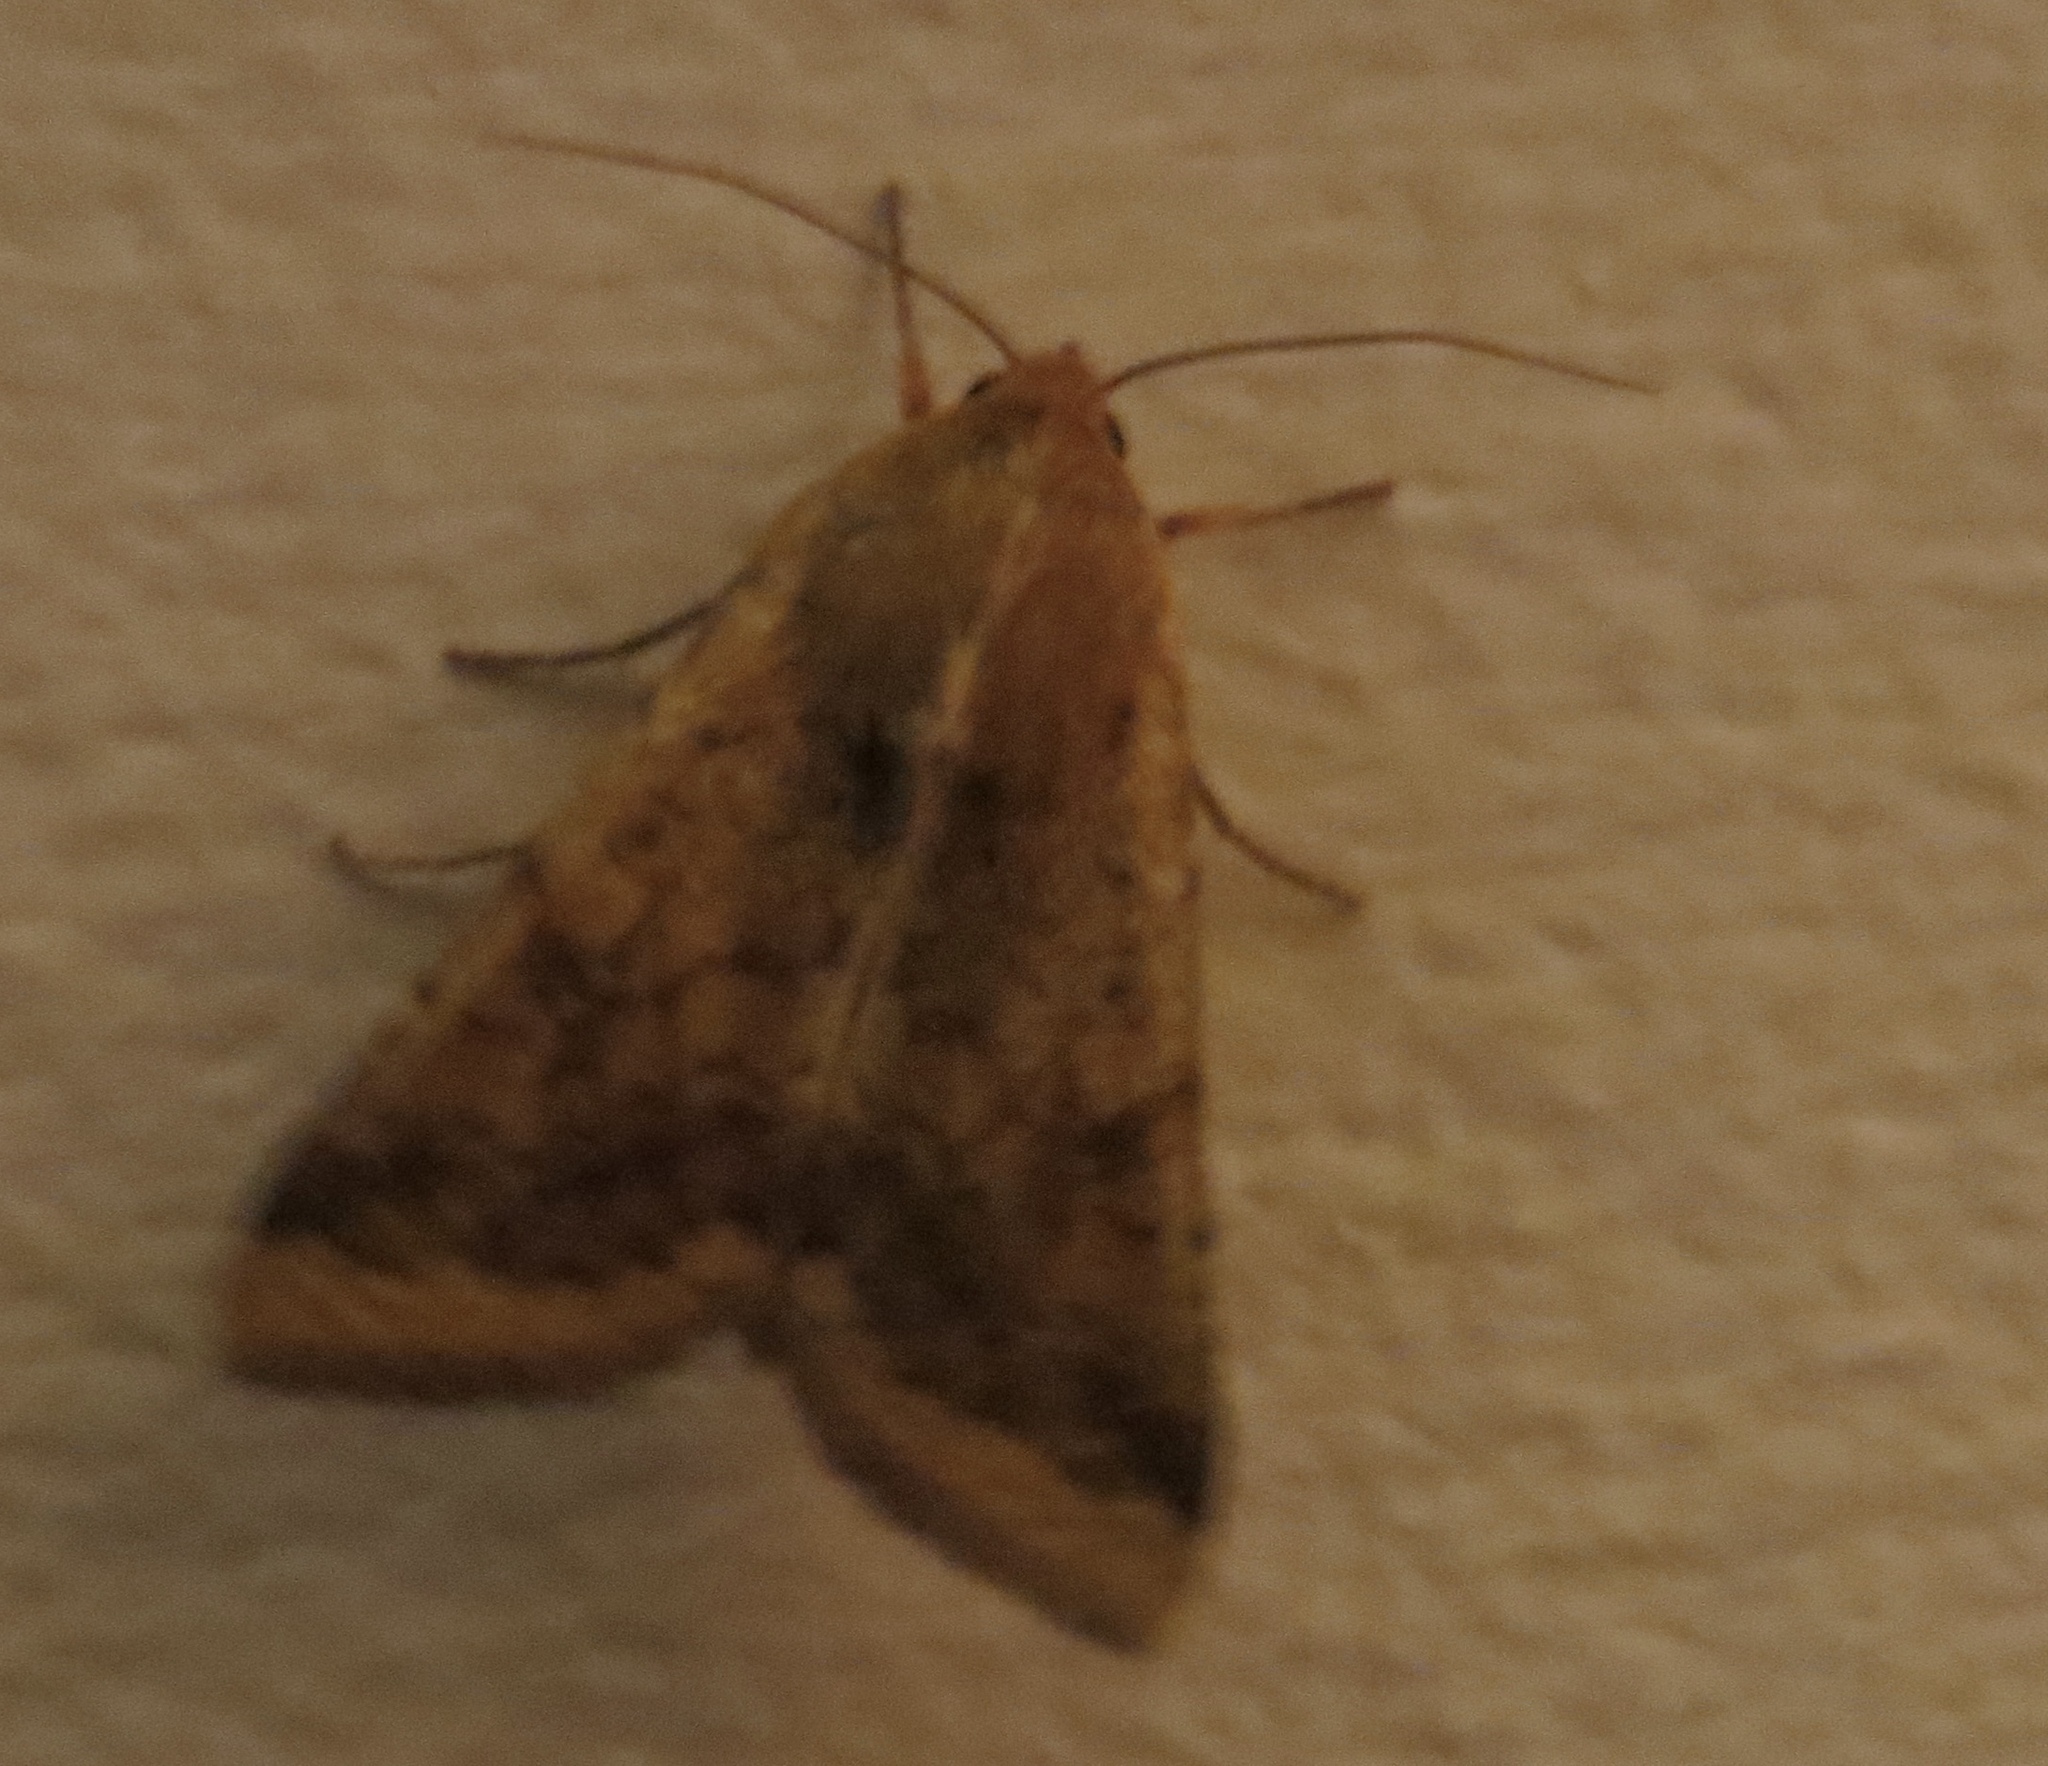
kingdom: Animalia
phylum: Arthropoda
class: Insecta
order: Lepidoptera
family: Noctuidae
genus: Helicoverpa
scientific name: Helicoverpa zea
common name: Bollworm
